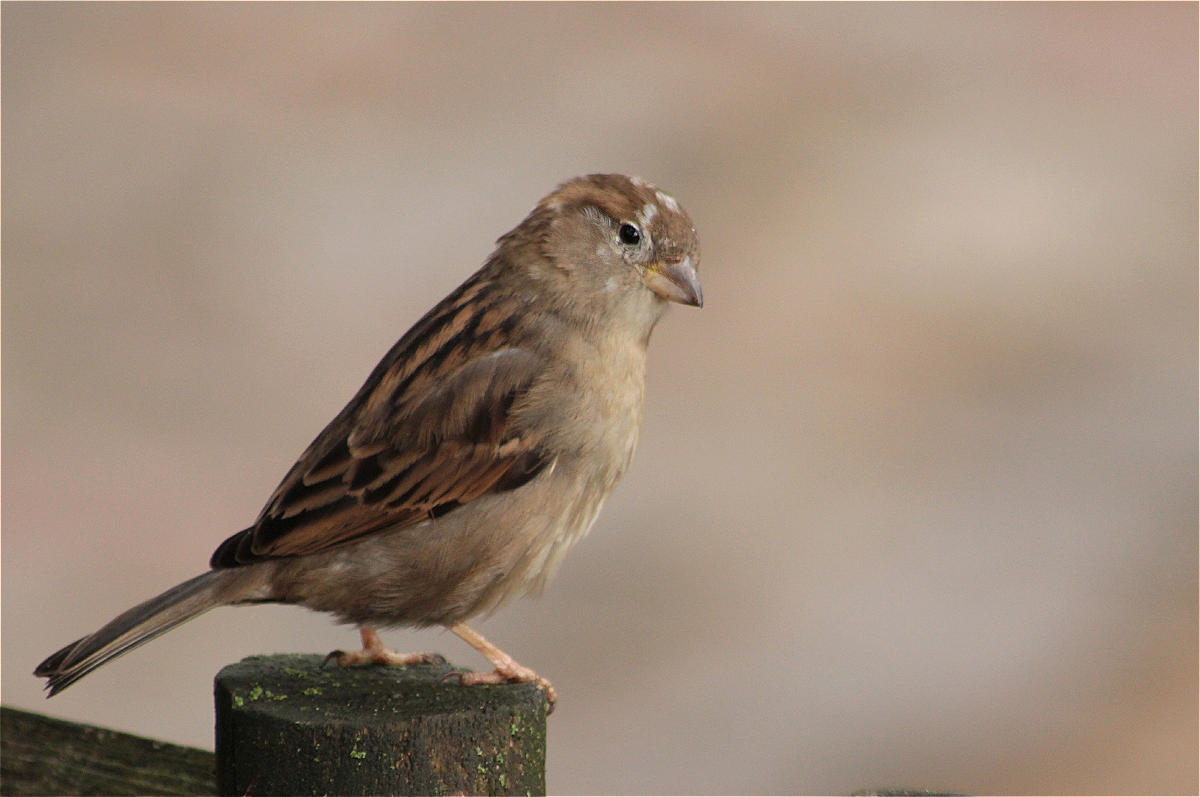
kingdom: Animalia
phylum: Chordata
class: Aves
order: Passeriformes
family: Passeridae
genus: Passer
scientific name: Passer domesticus
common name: House sparrow
